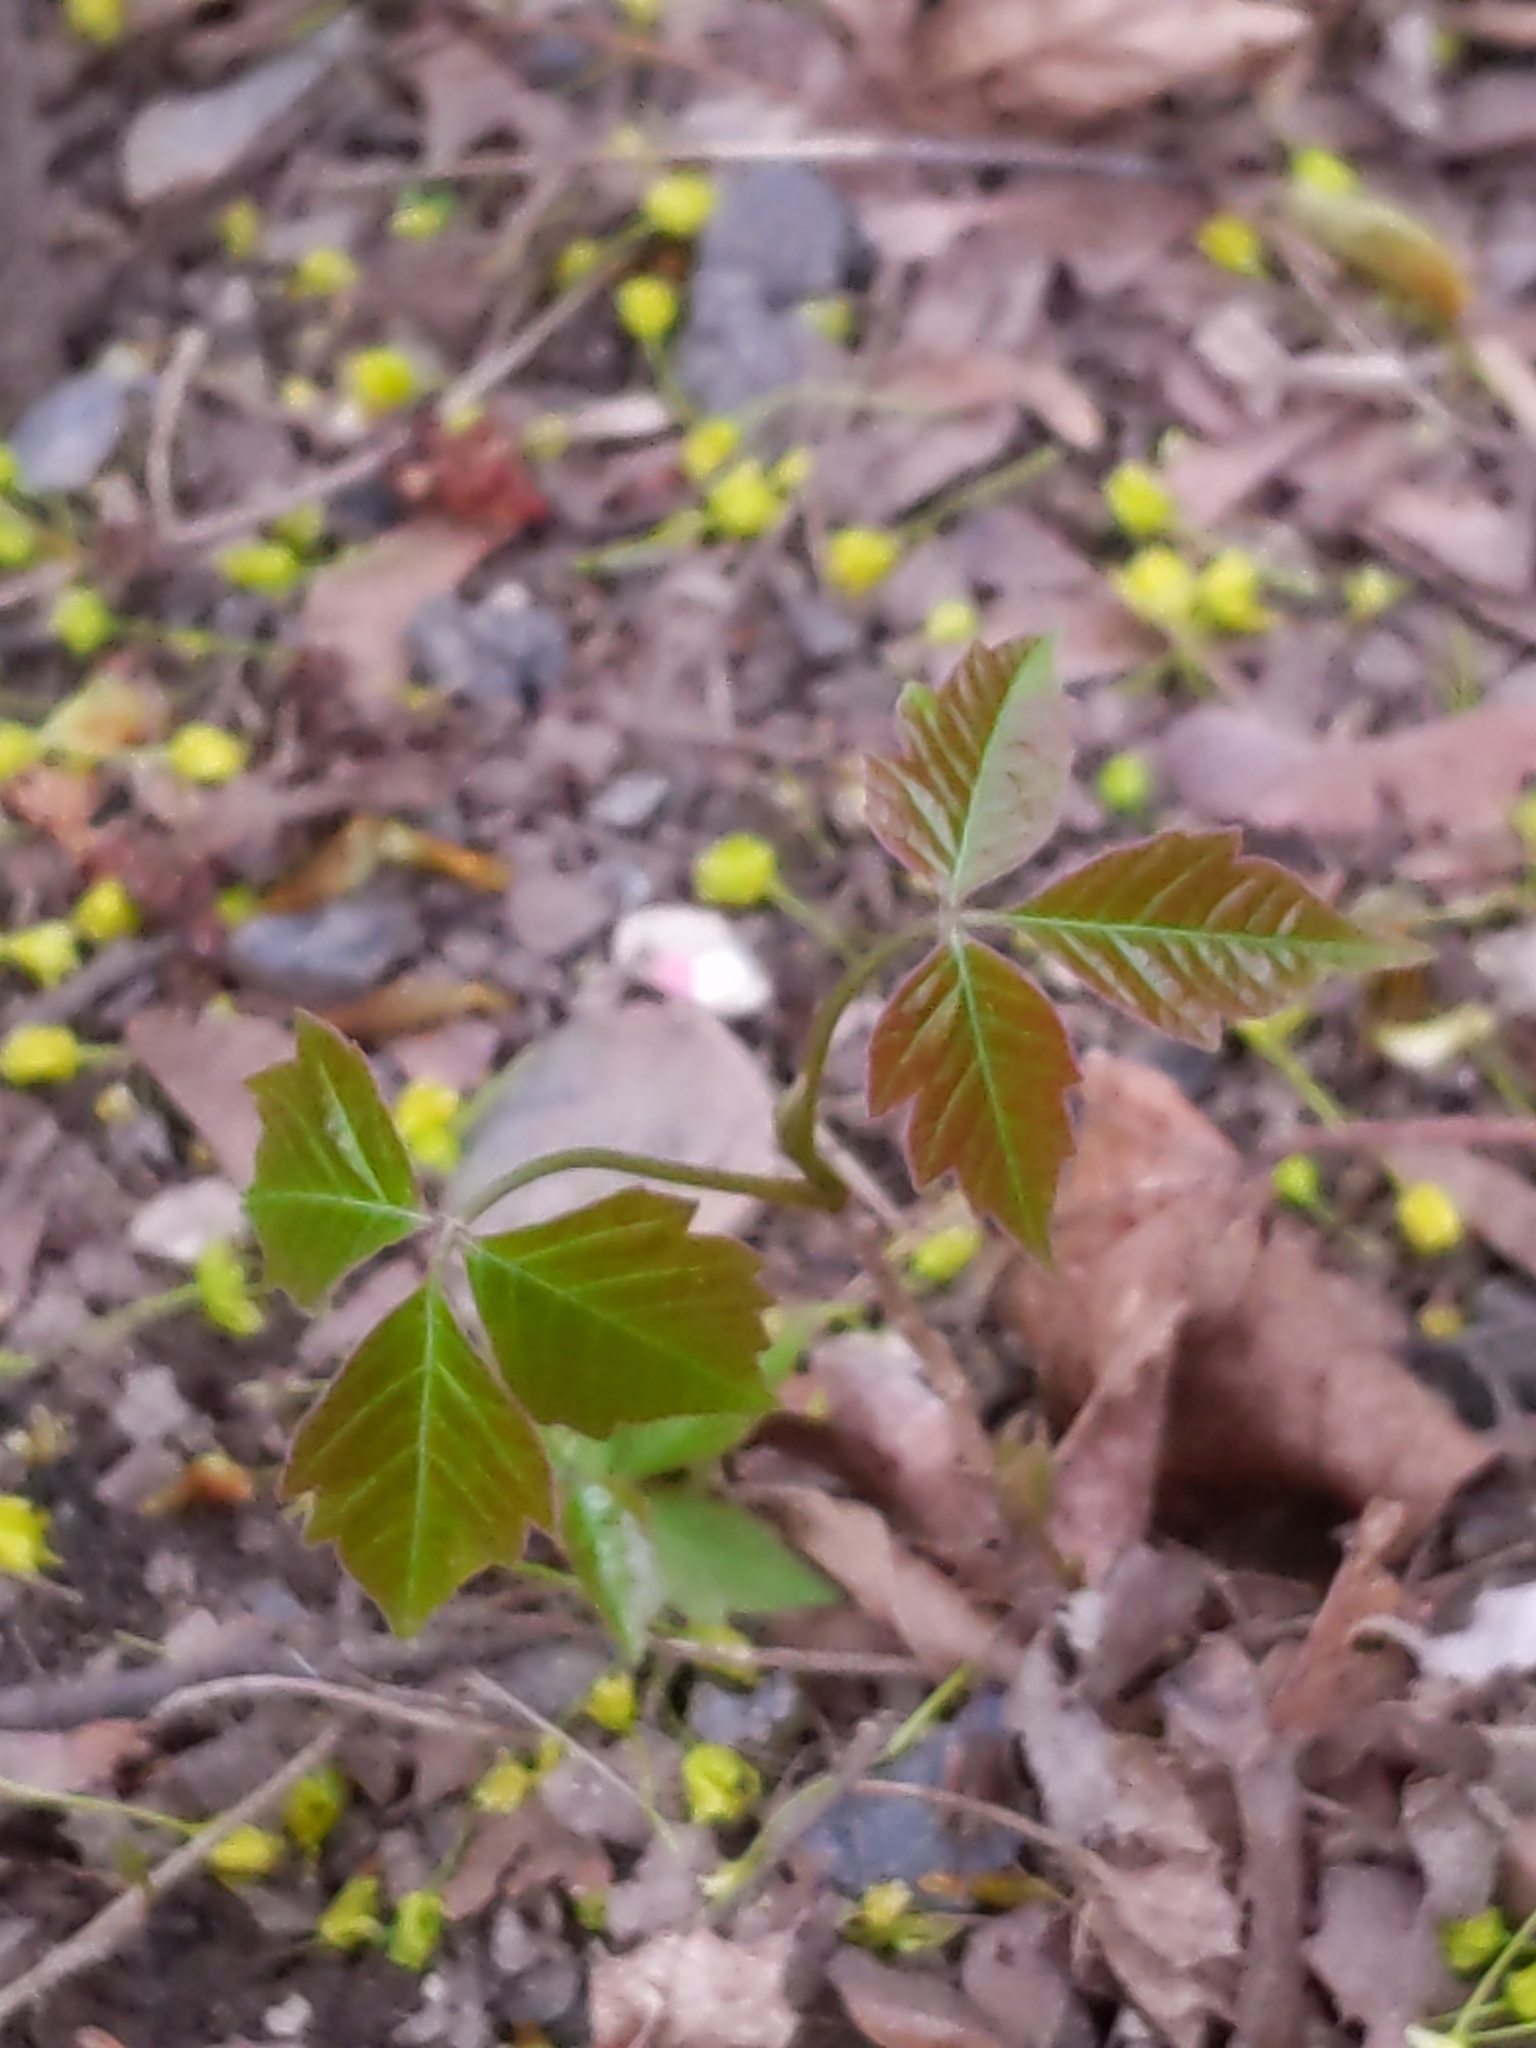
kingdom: Plantae
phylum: Tracheophyta
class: Magnoliopsida
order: Sapindales
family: Anacardiaceae
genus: Toxicodendron
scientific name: Toxicodendron radicans
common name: Poison ivy
